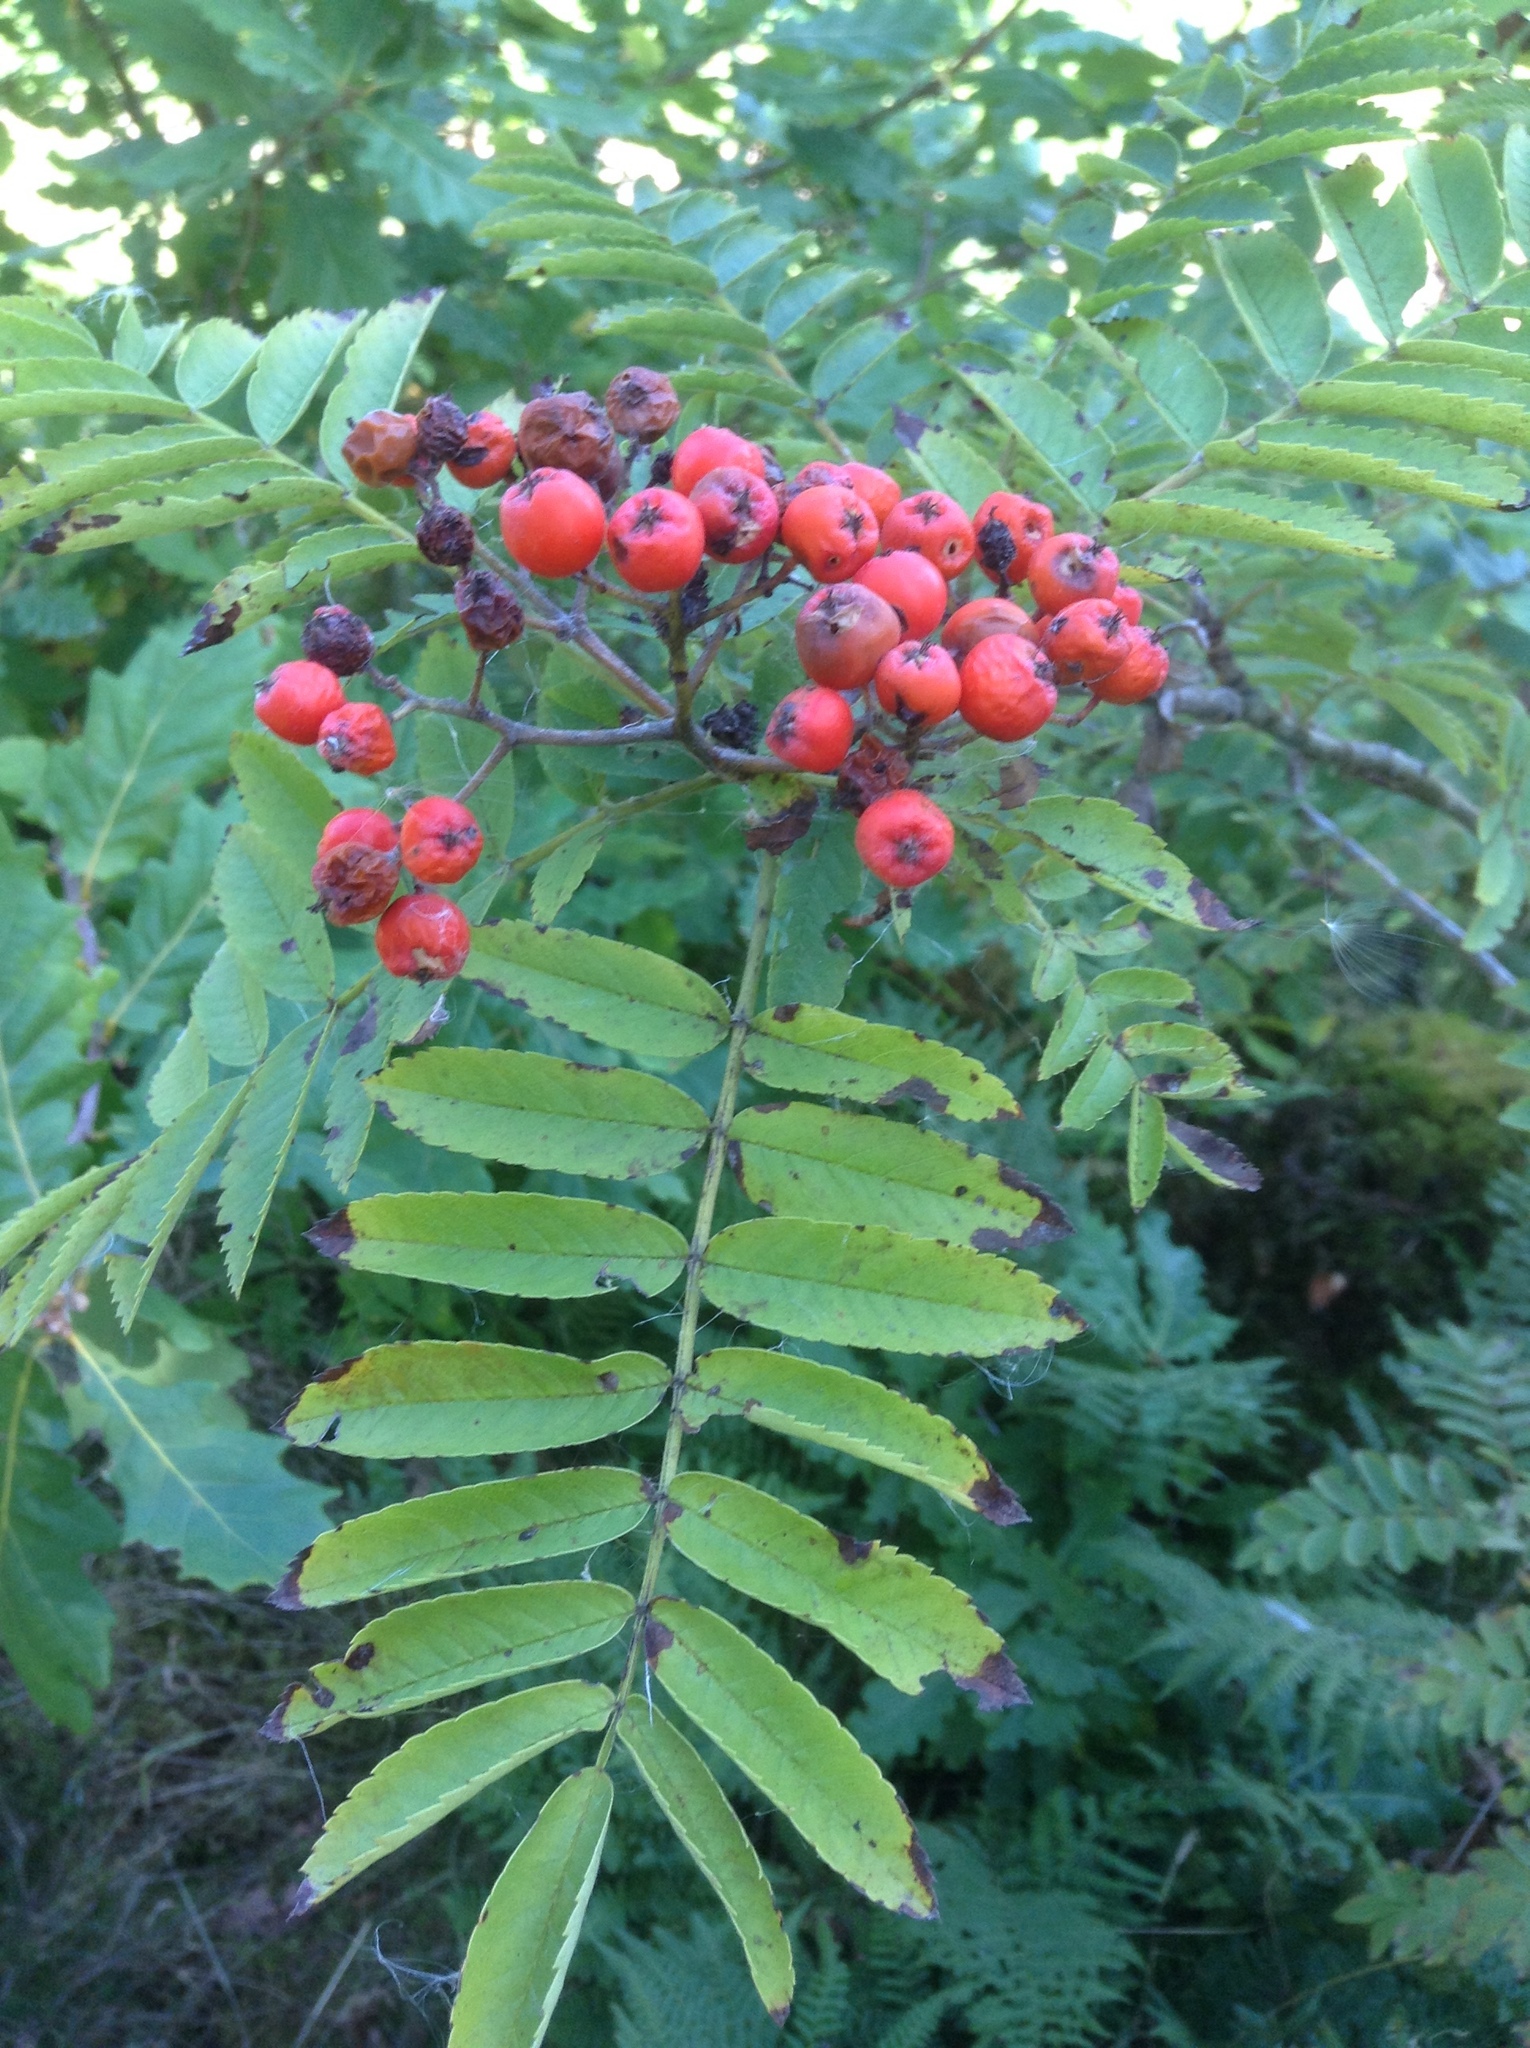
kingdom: Plantae
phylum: Tracheophyta
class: Magnoliopsida
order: Rosales
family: Rosaceae
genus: Sorbus
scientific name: Sorbus aucuparia
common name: Rowan
